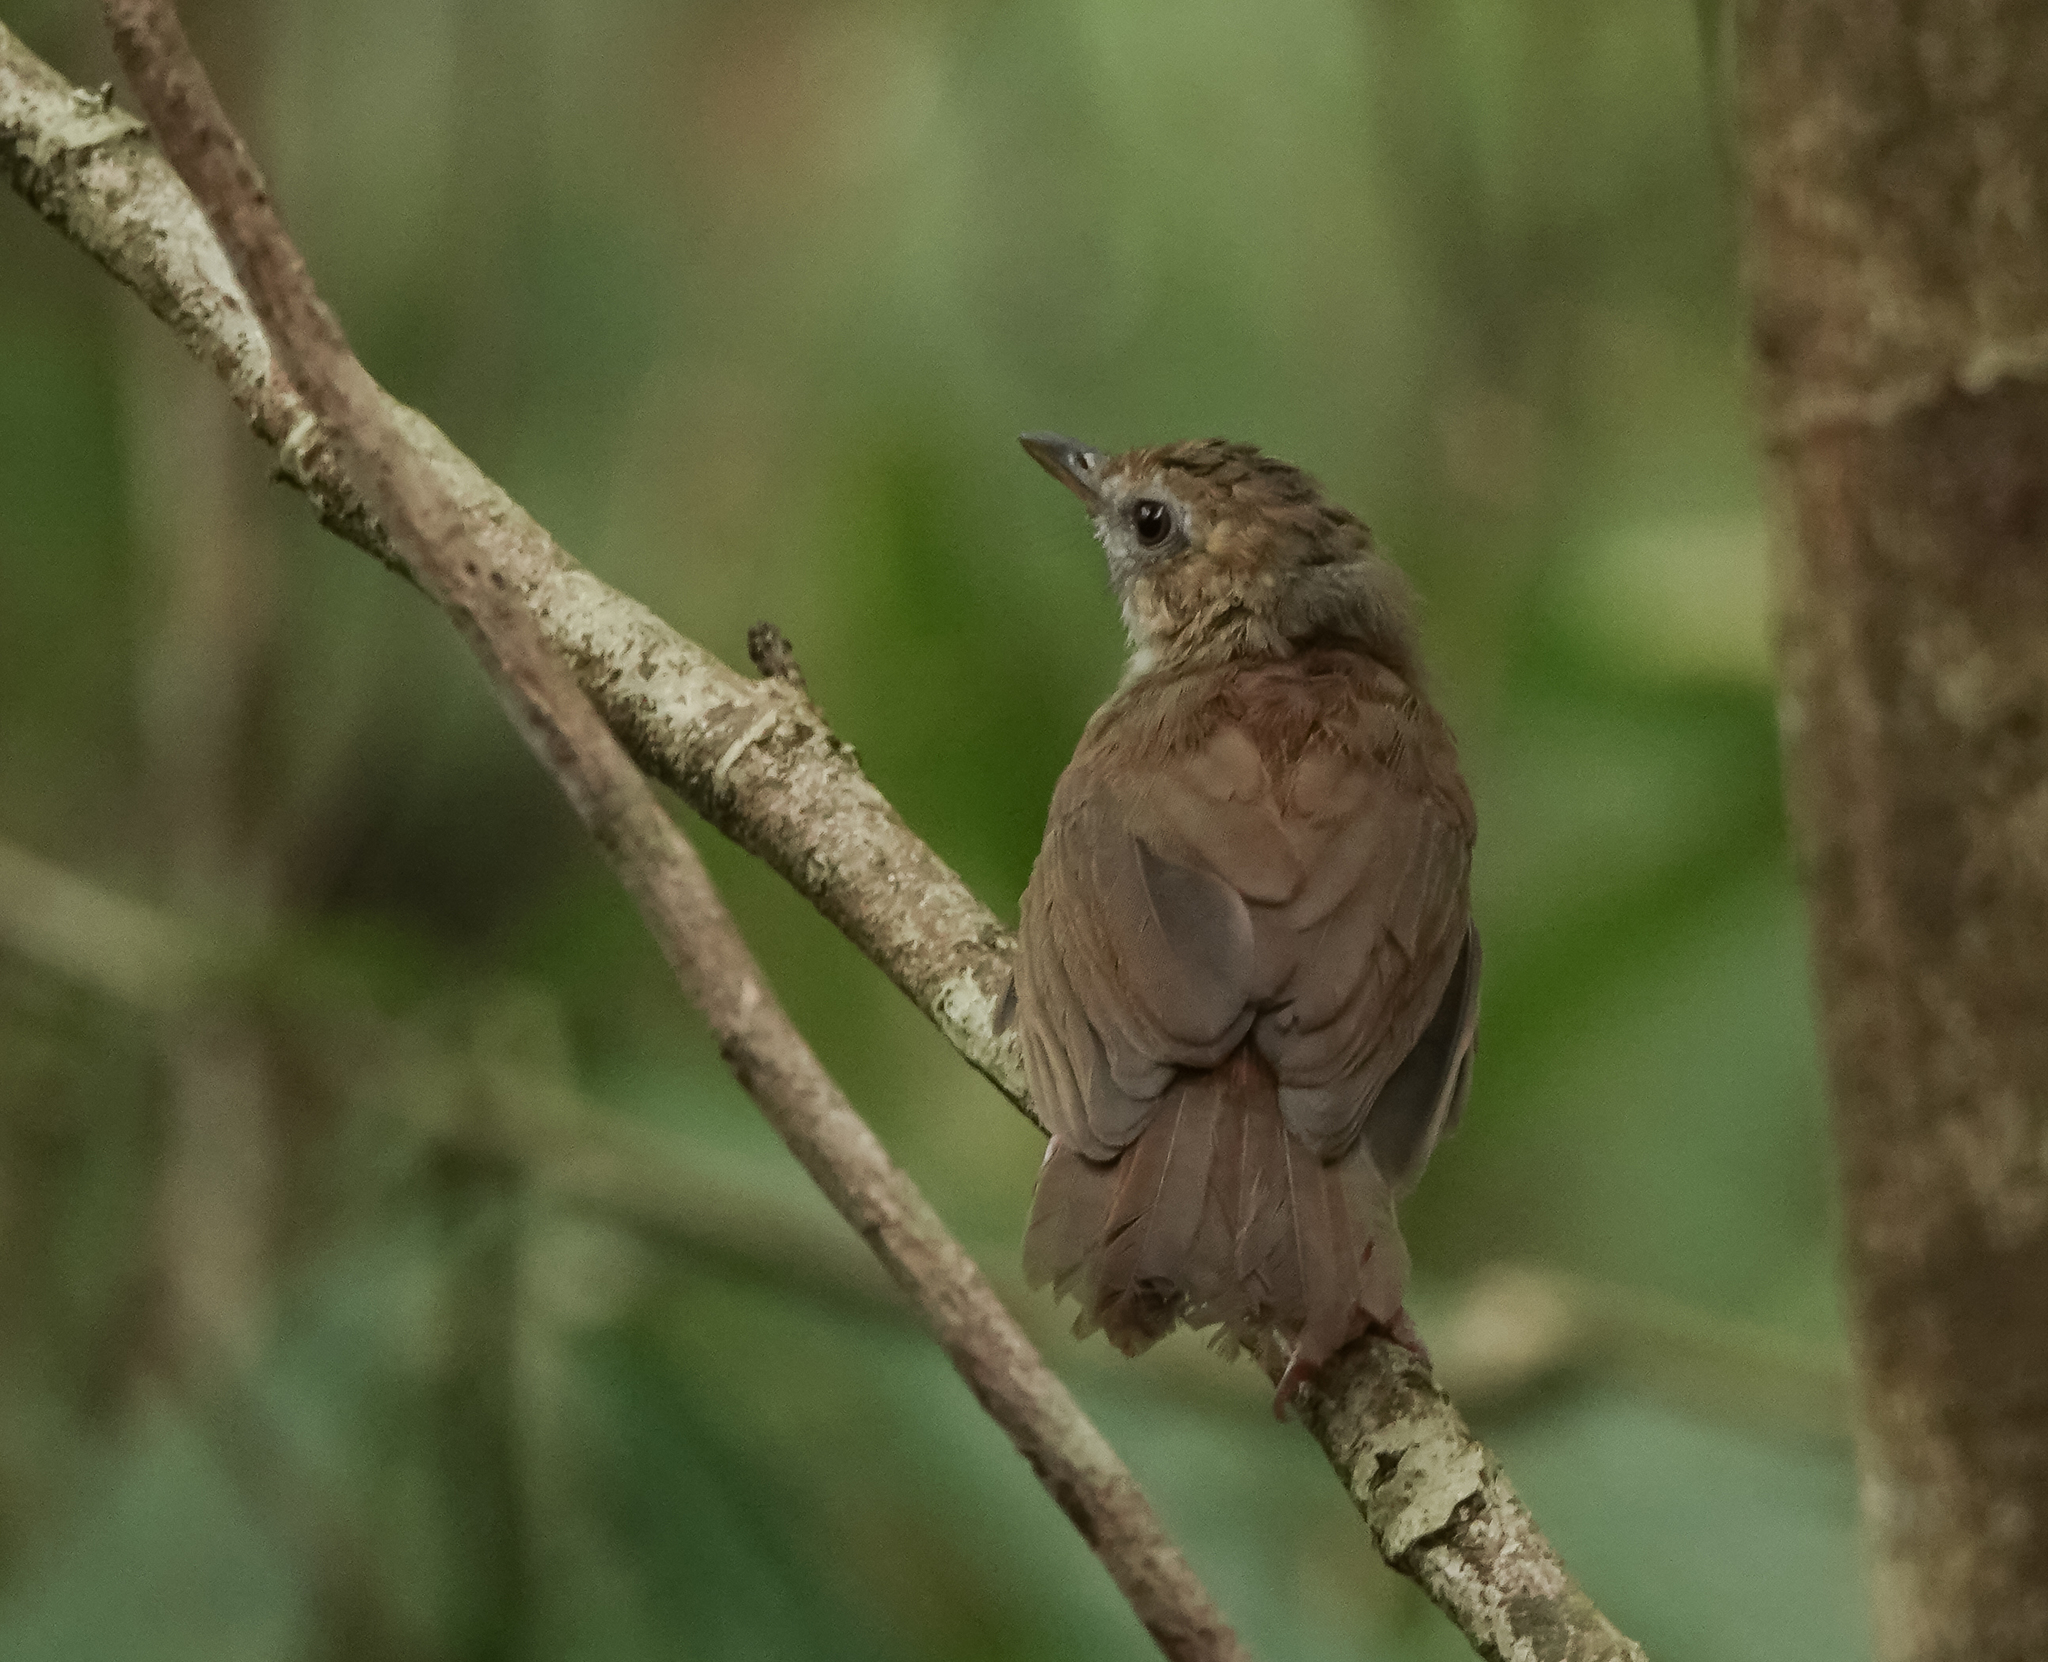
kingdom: Animalia
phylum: Chordata
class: Aves
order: Passeriformes
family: Pellorneidae
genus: Malacocincla
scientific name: Malacocincla abbotti
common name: Abbott's babbler
